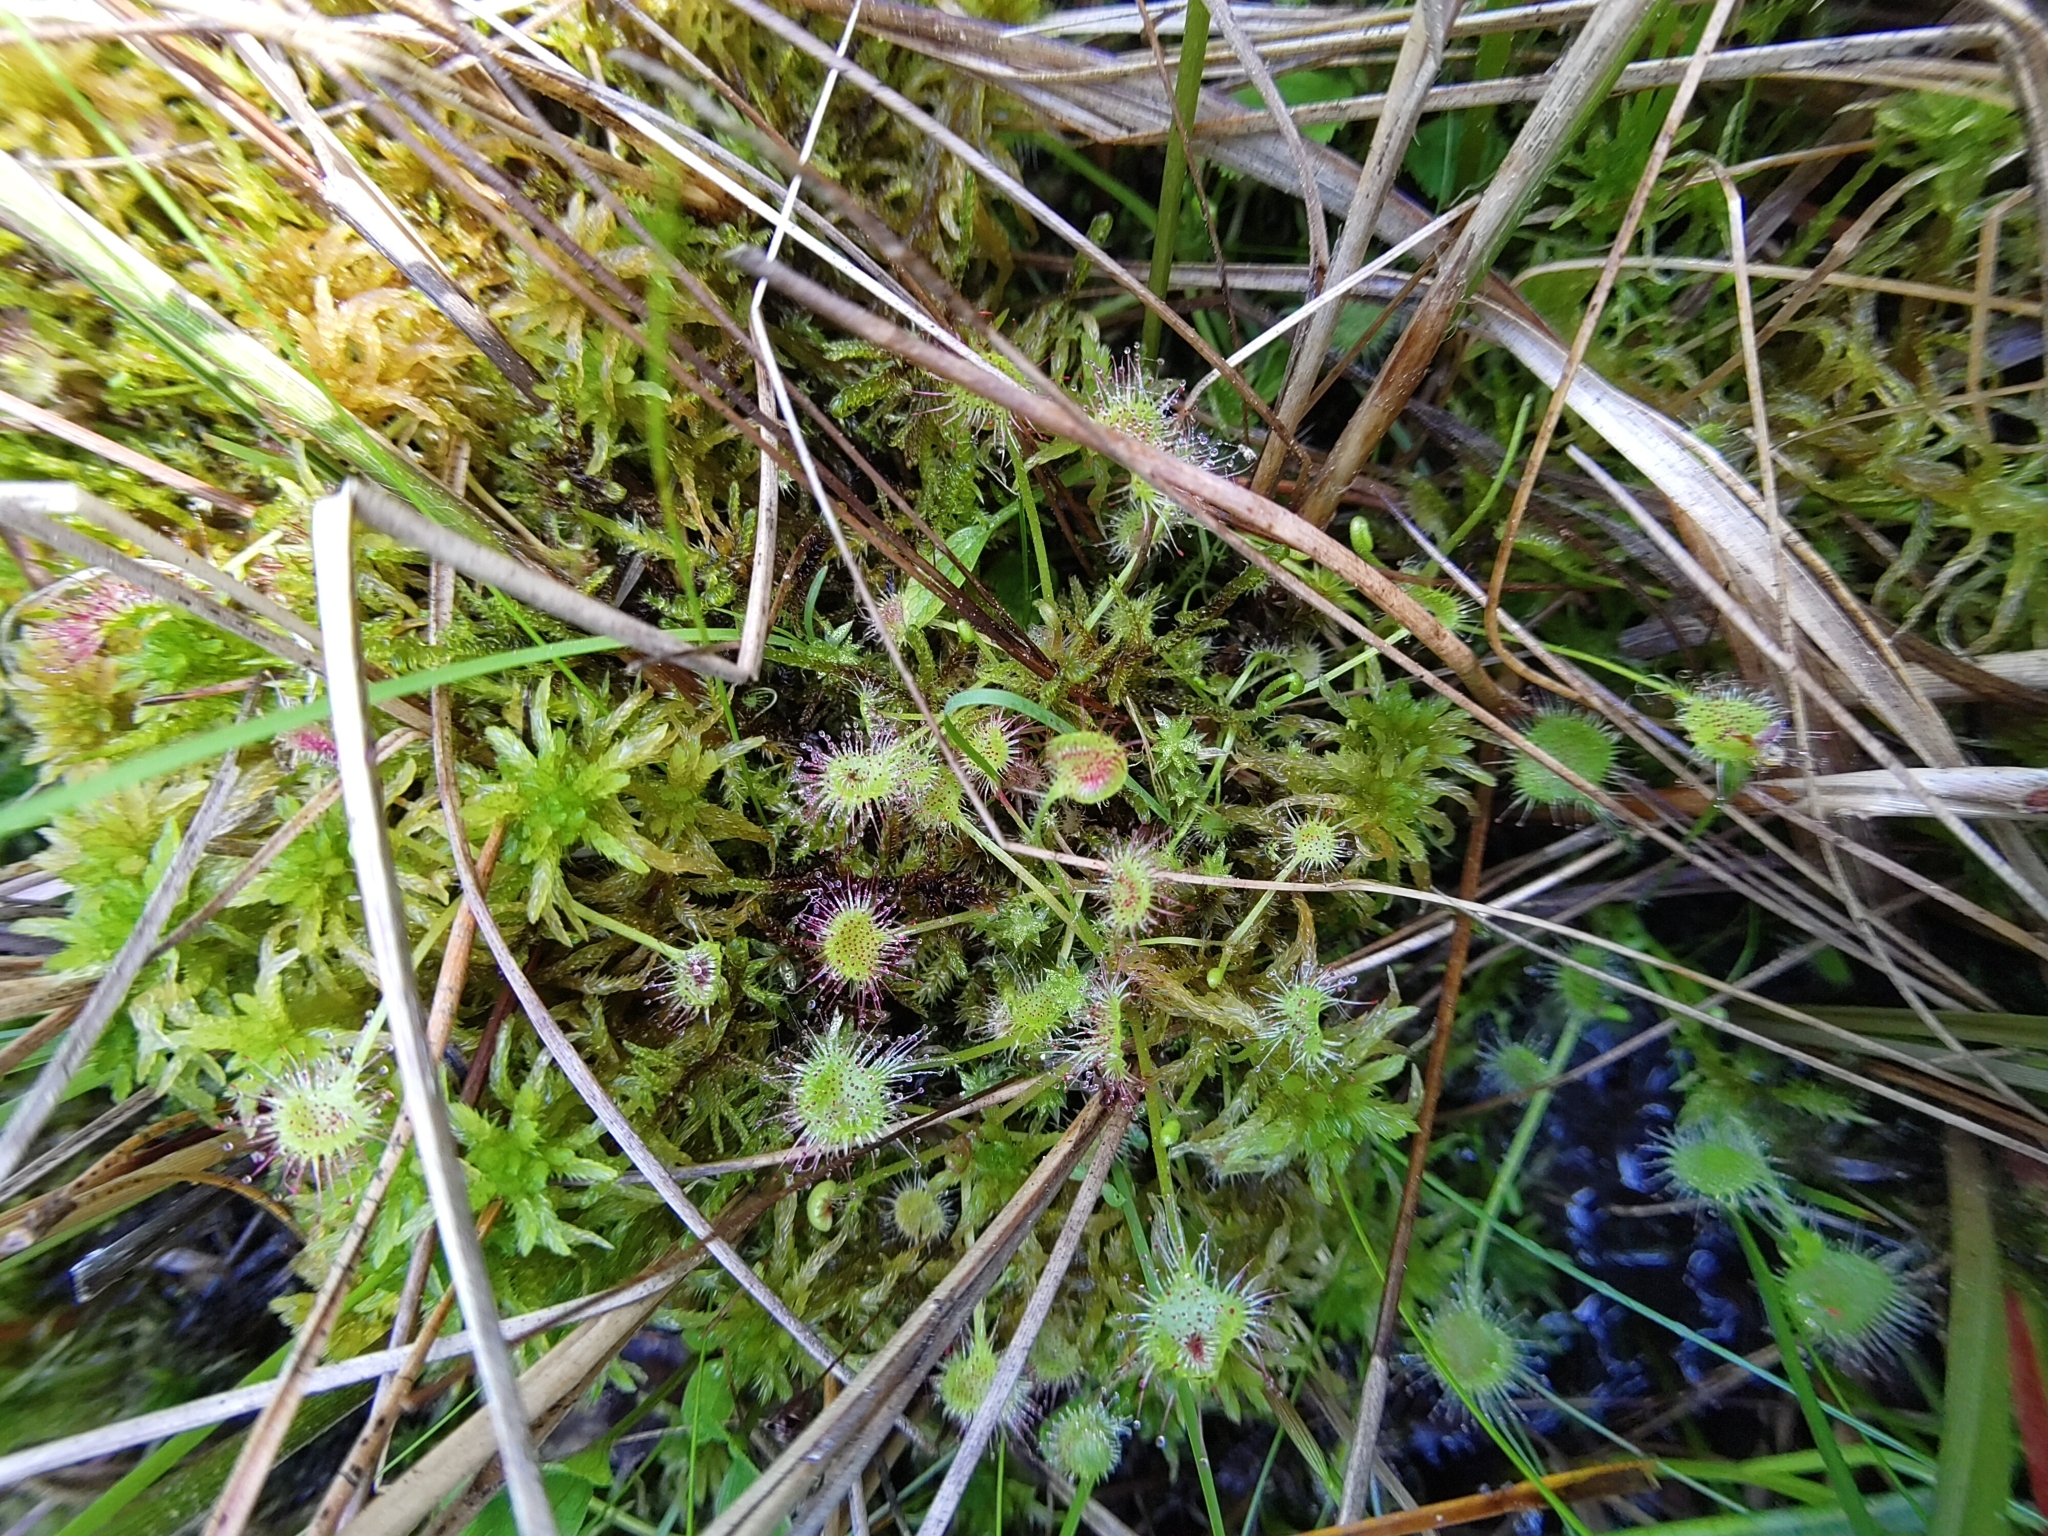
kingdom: Plantae
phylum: Tracheophyta
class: Magnoliopsida
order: Caryophyllales
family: Droseraceae
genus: Drosera
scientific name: Drosera rotundifolia
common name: Round-leaved sundew
